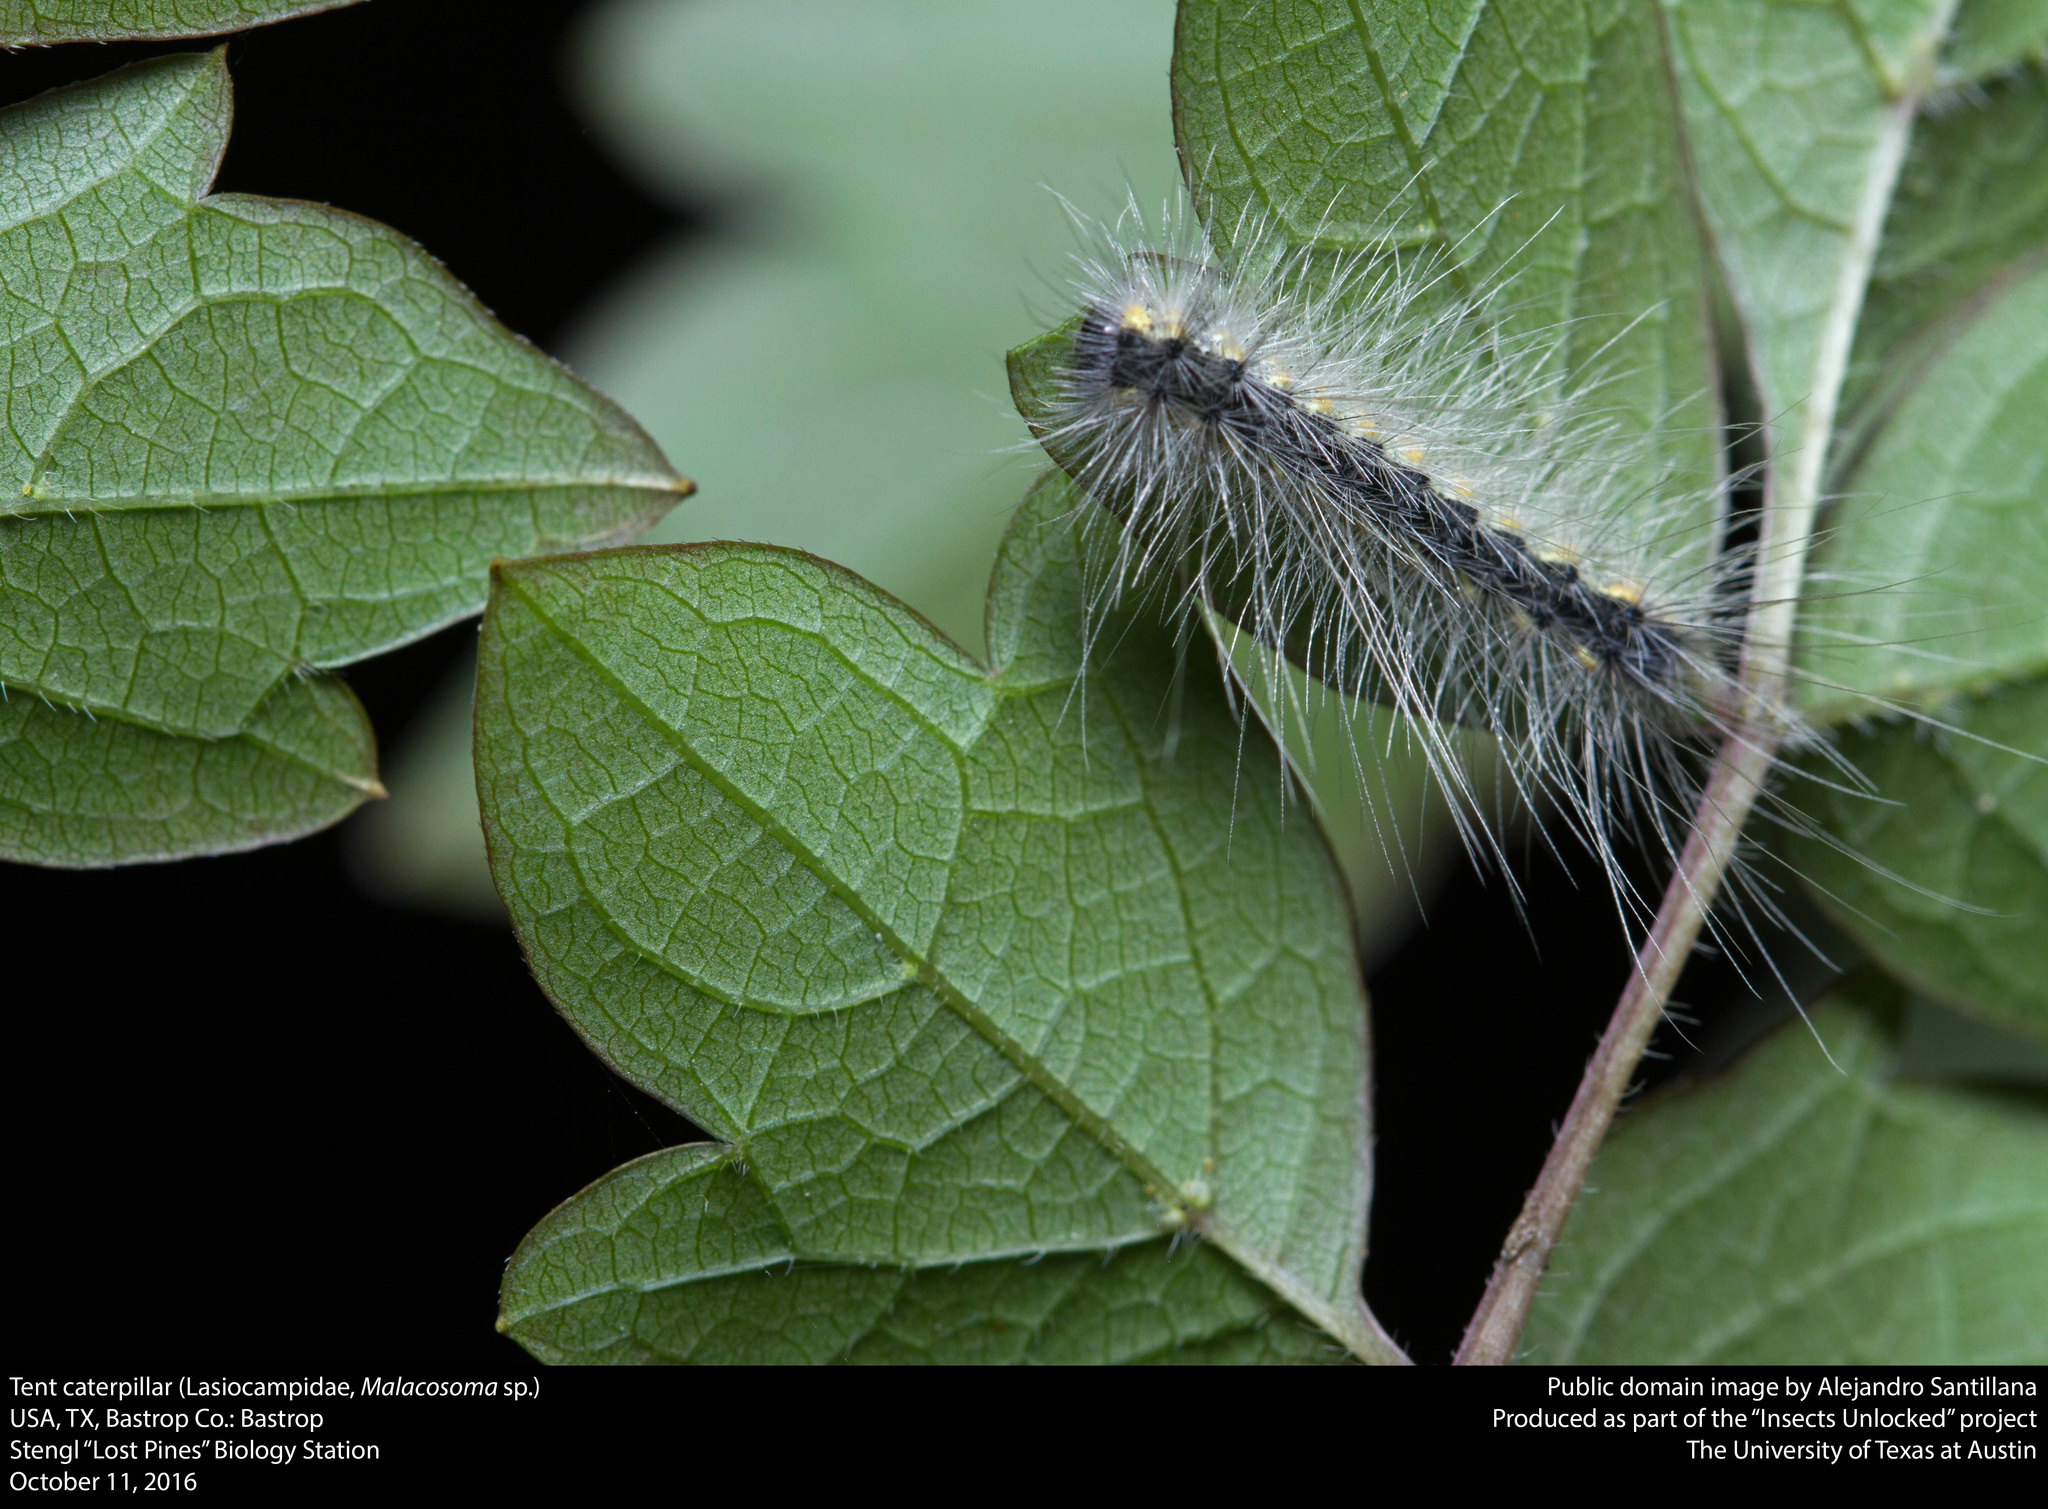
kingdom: Animalia
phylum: Arthropoda
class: Insecta
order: Lepidoptera
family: Erebidae
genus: Hyphantria
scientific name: Hyphantria cunea
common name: American white moth
